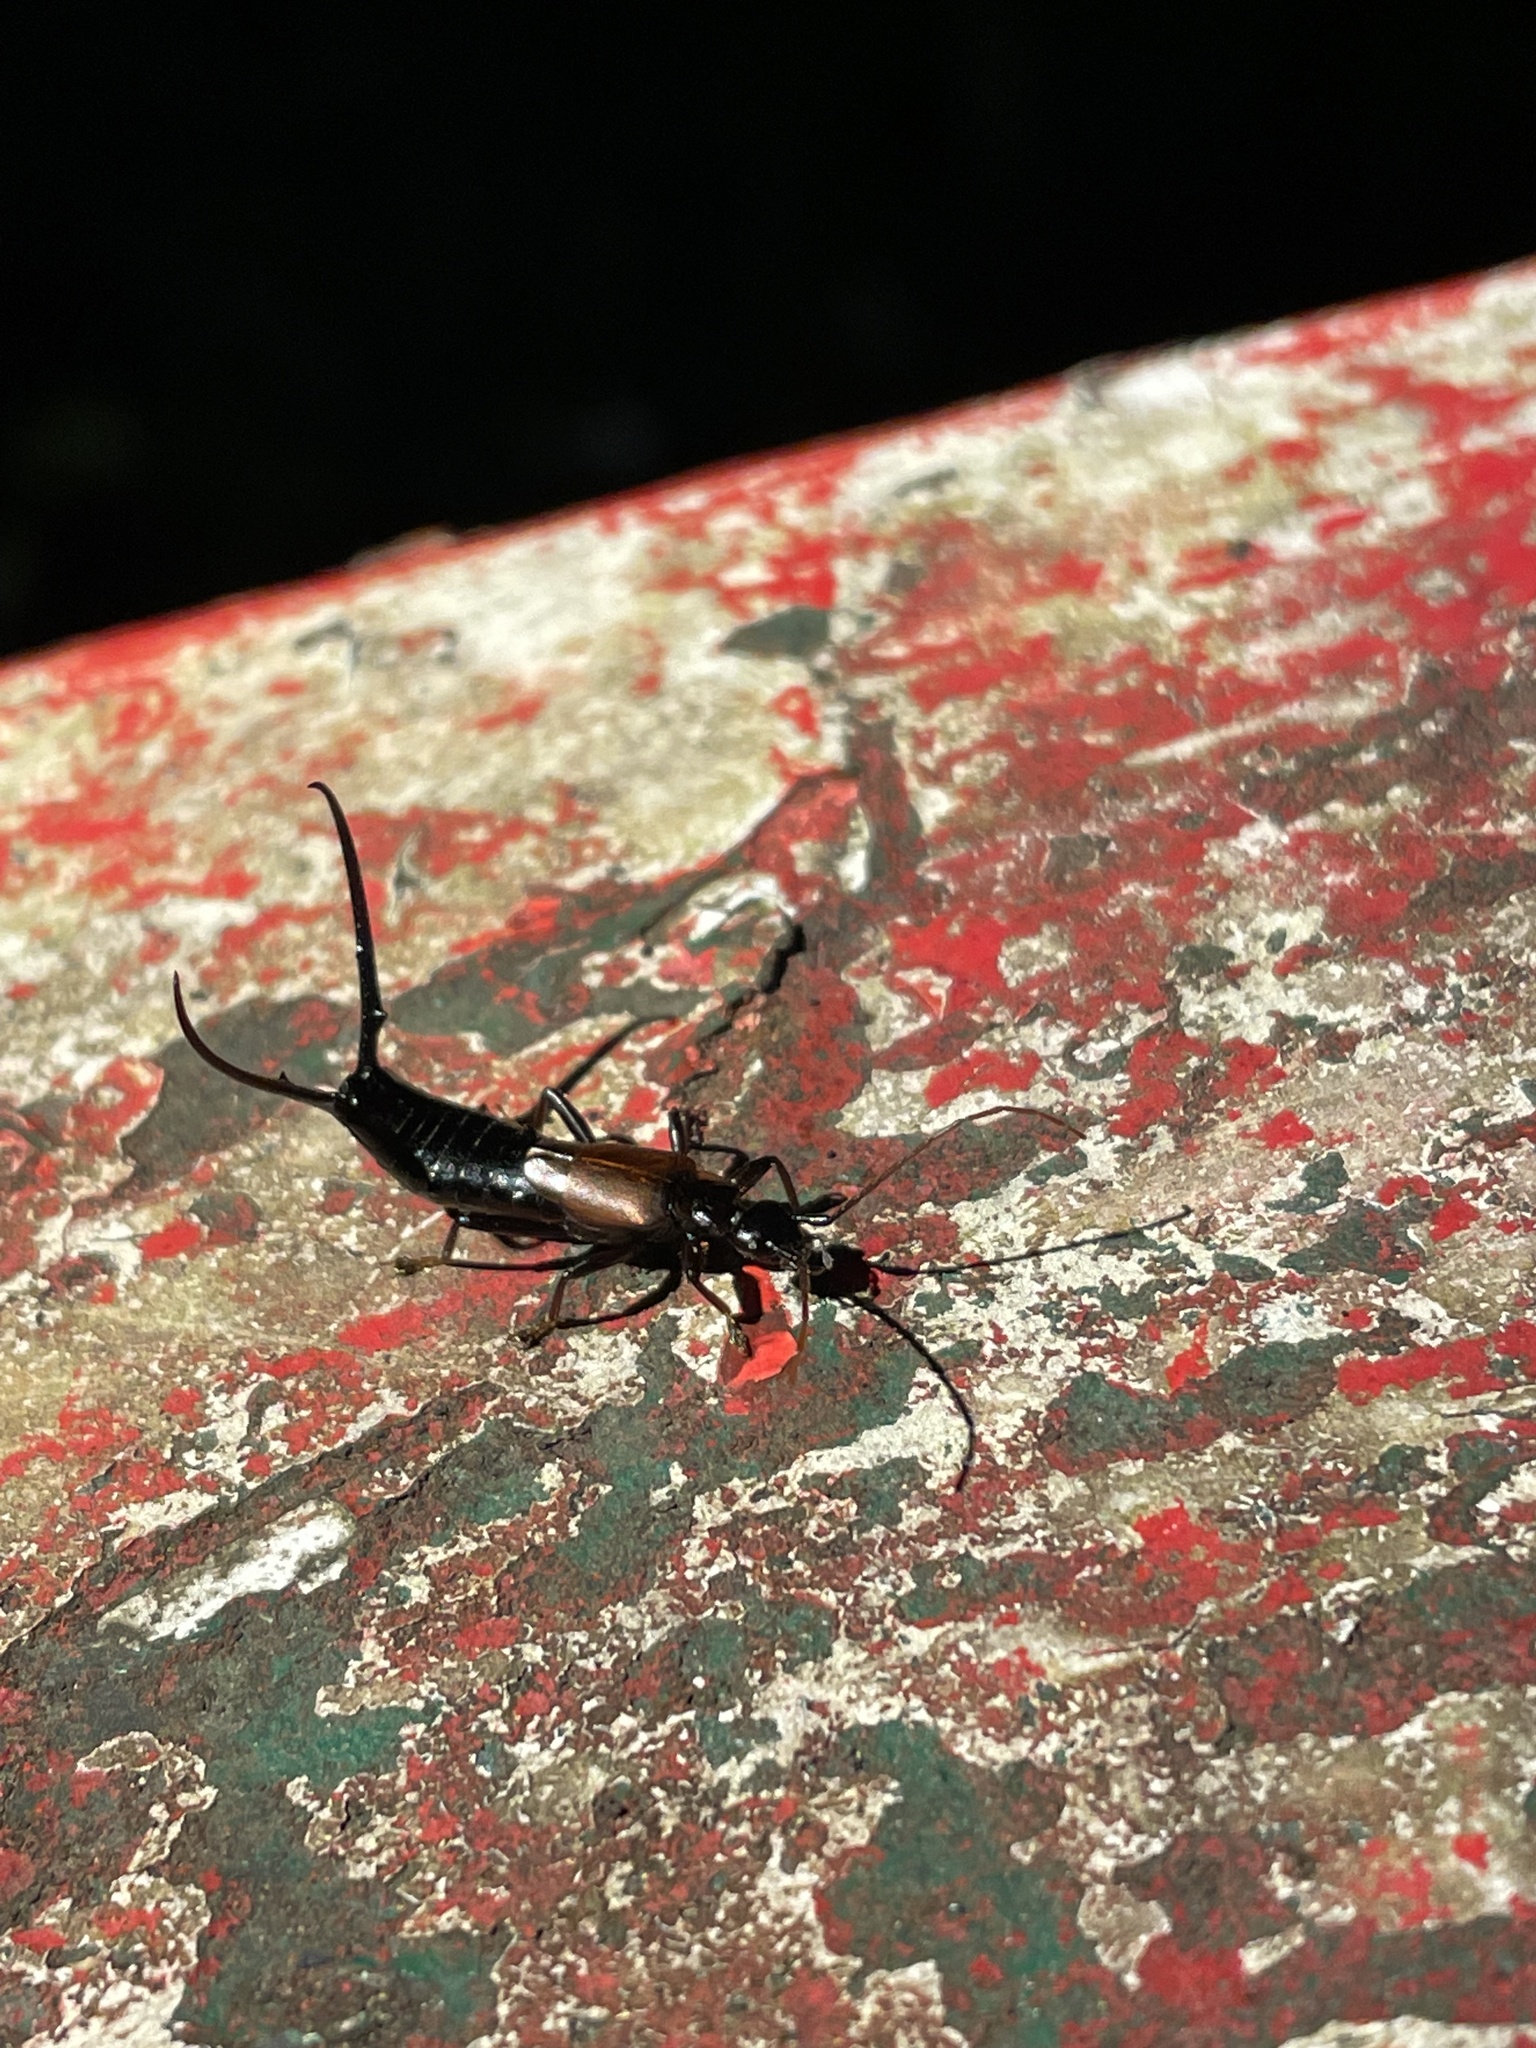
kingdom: Animalia
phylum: Arthropoda
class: Insecta
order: Dermaptera
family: Forficulidae
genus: Timomenus
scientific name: Timomenus komarovi
